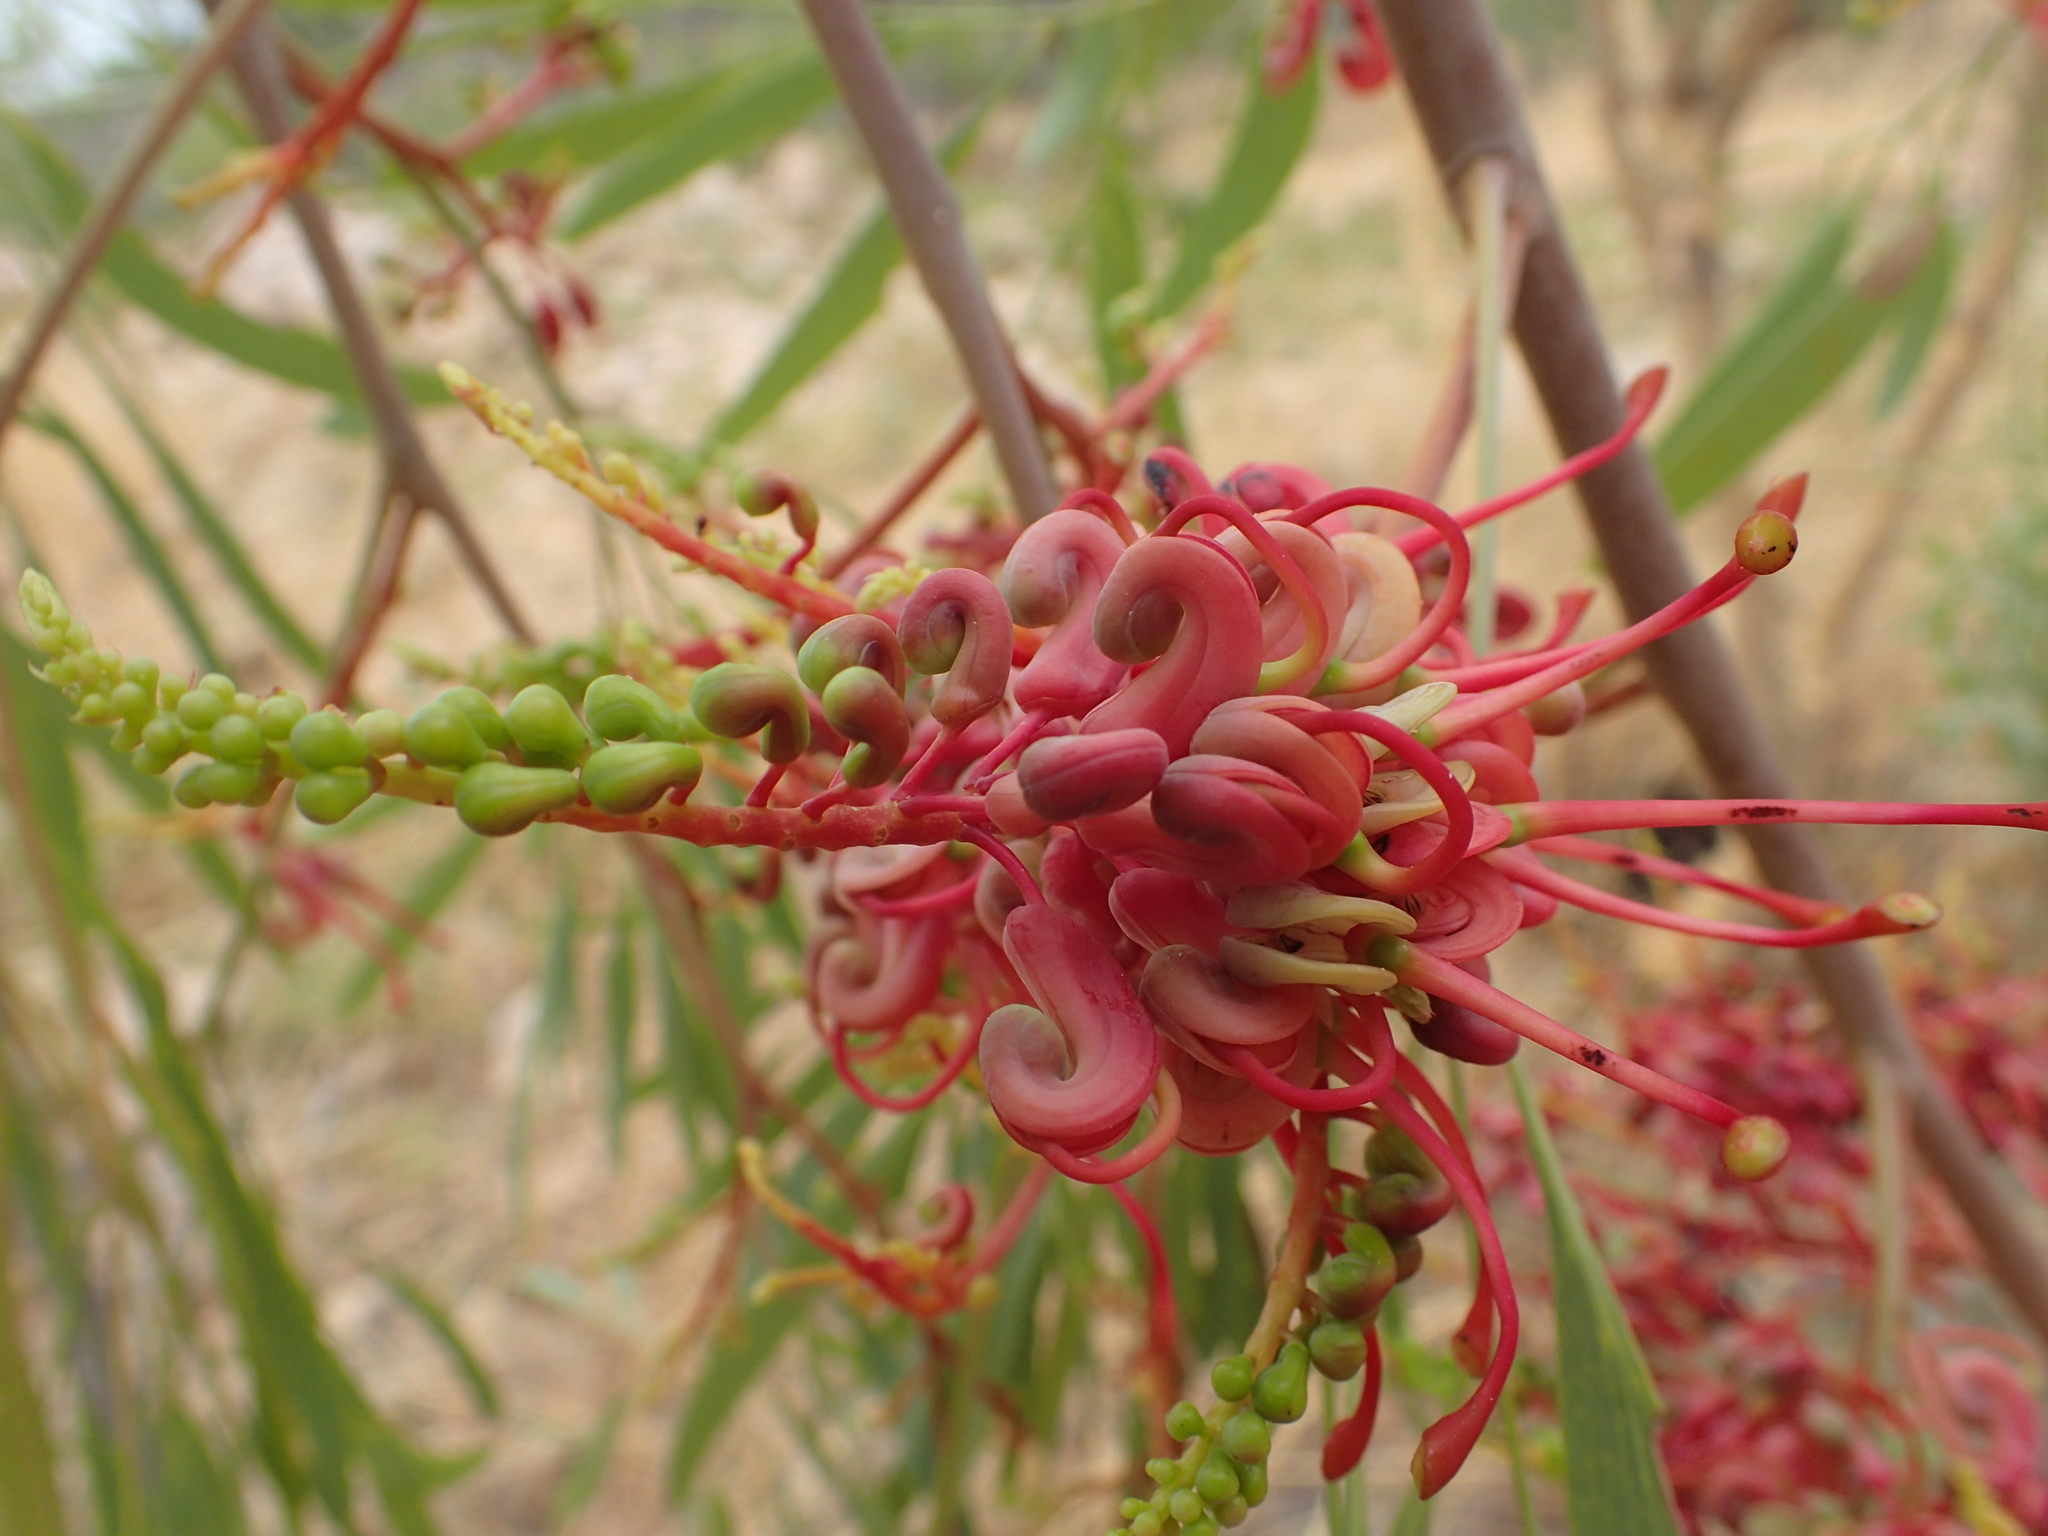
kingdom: Plantae
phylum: Tracheophyta
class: Magnoliopsida
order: Proteales
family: Proteaceae
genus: Grevillea
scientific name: Grevillea heliosperma
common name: Rock grevillea
